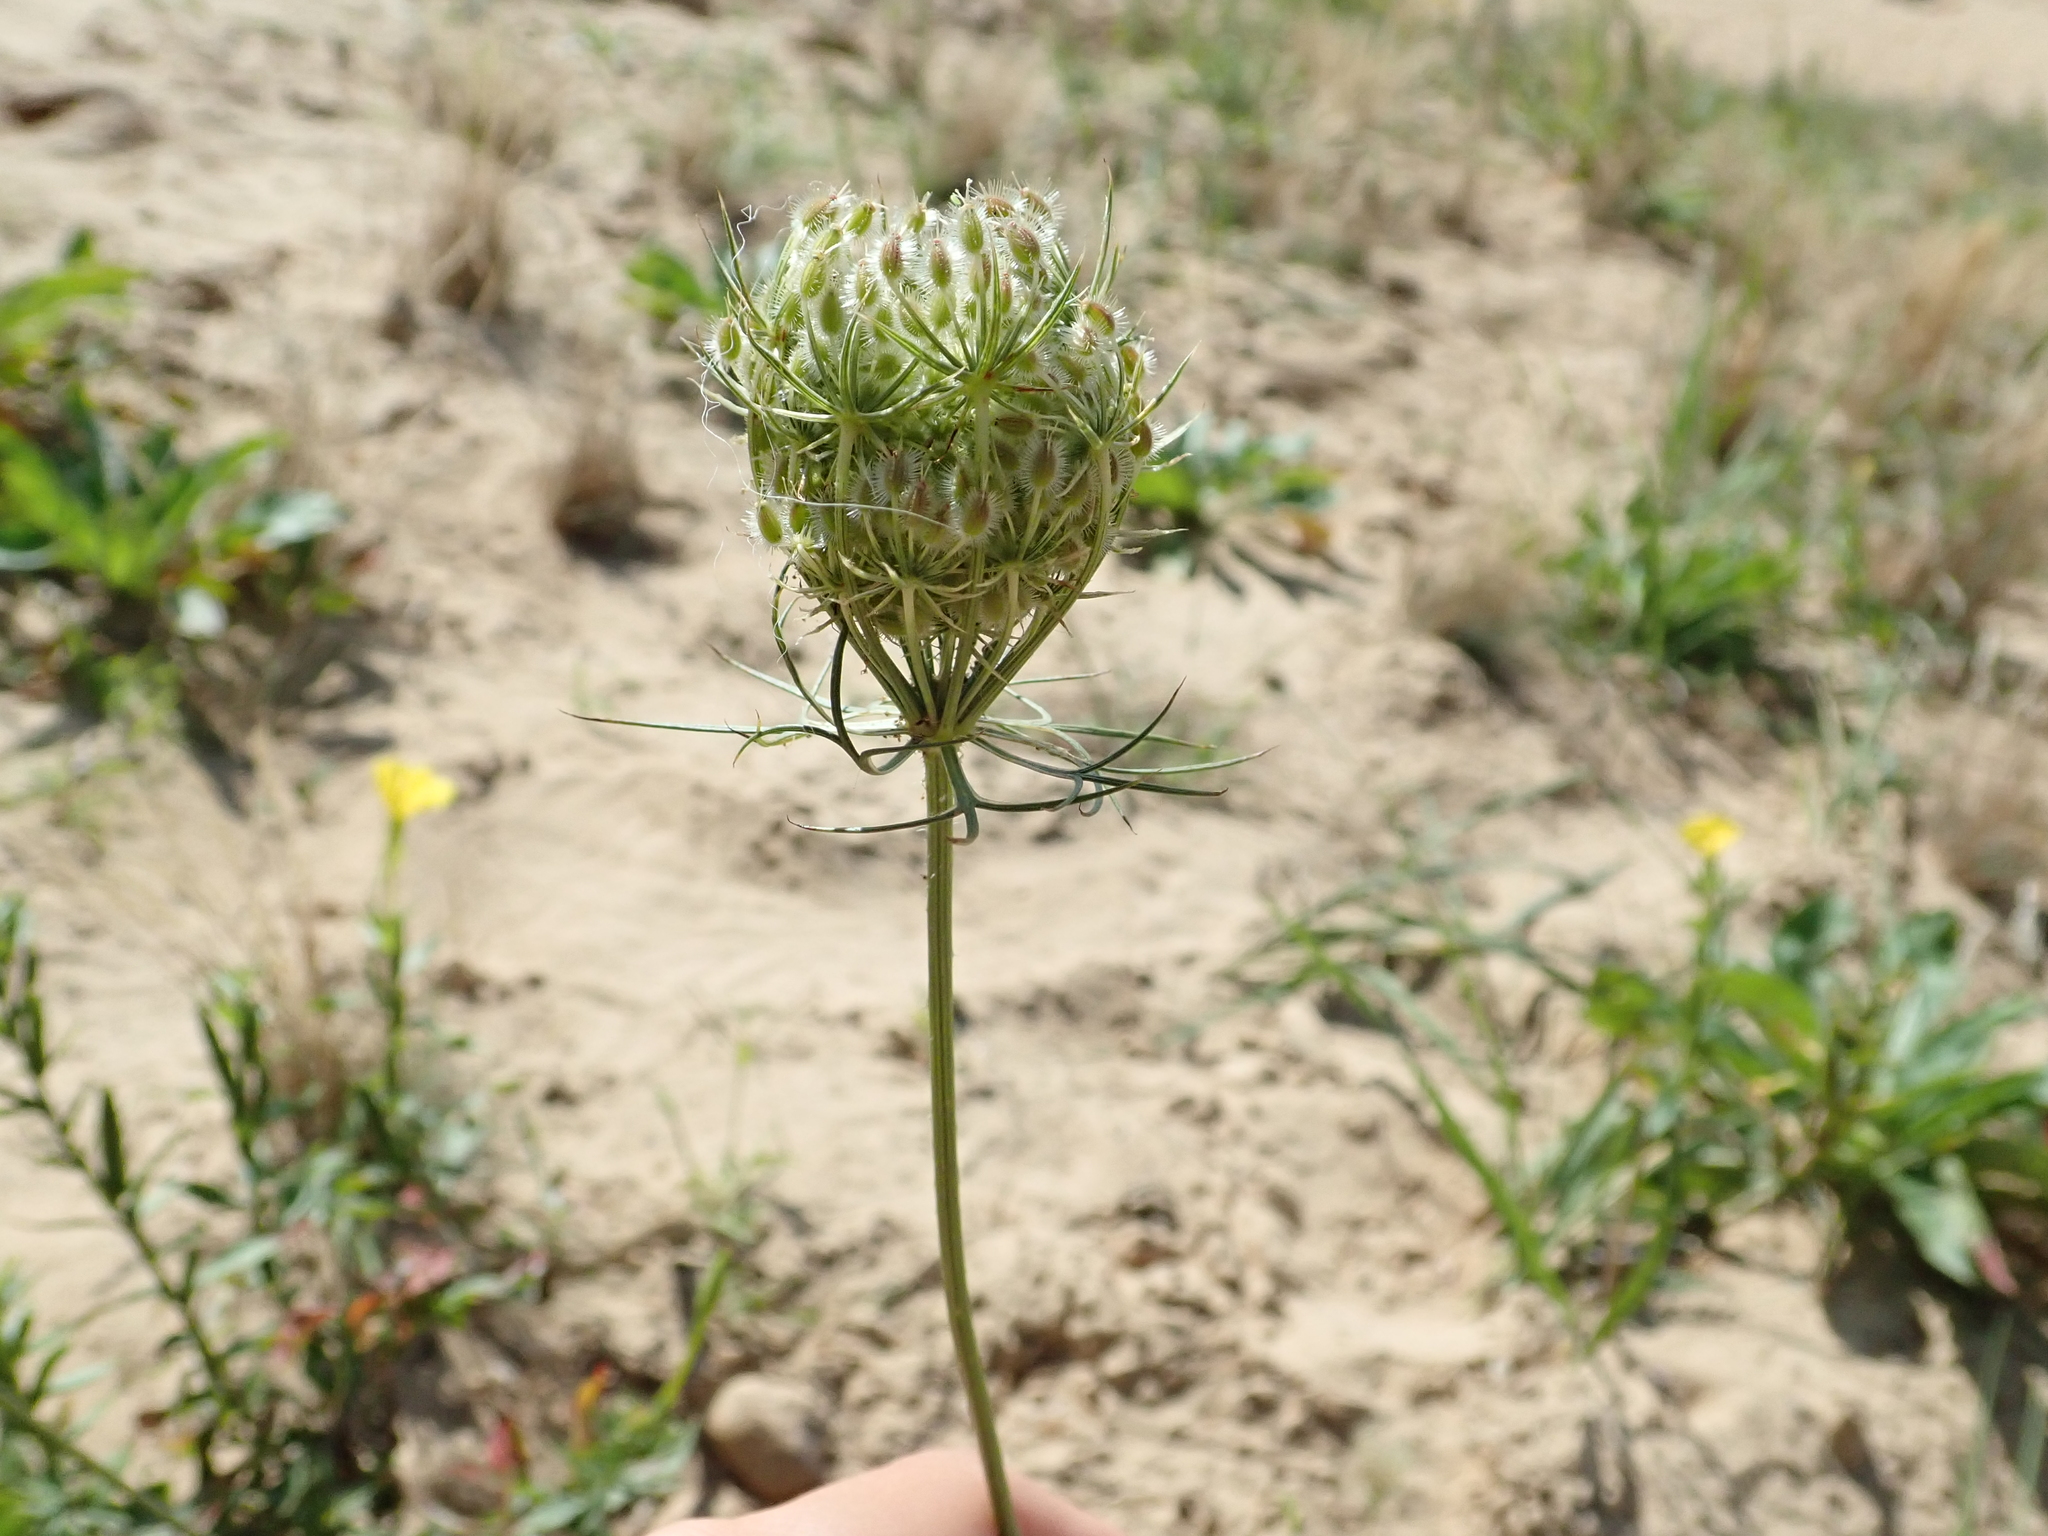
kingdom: Plantae
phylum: Tracheophyta
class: Magnoliopsida
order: Apiales
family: Apiaceae
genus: Daucus
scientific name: Daucus carota
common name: Wild carrot
